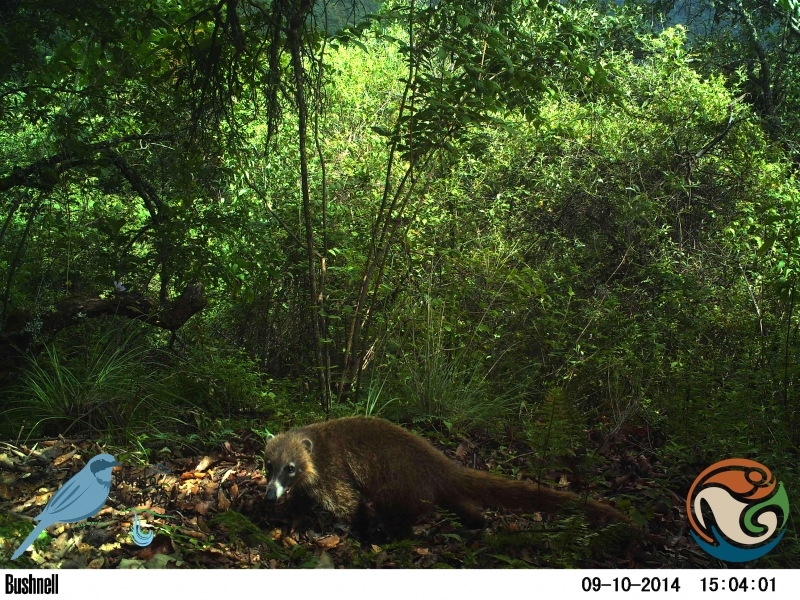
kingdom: Animalia
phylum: Chordata
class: Mammalia
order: Carnivora
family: Procyonidae
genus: Nasua
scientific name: Nasua narica
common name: White-nosed coati
